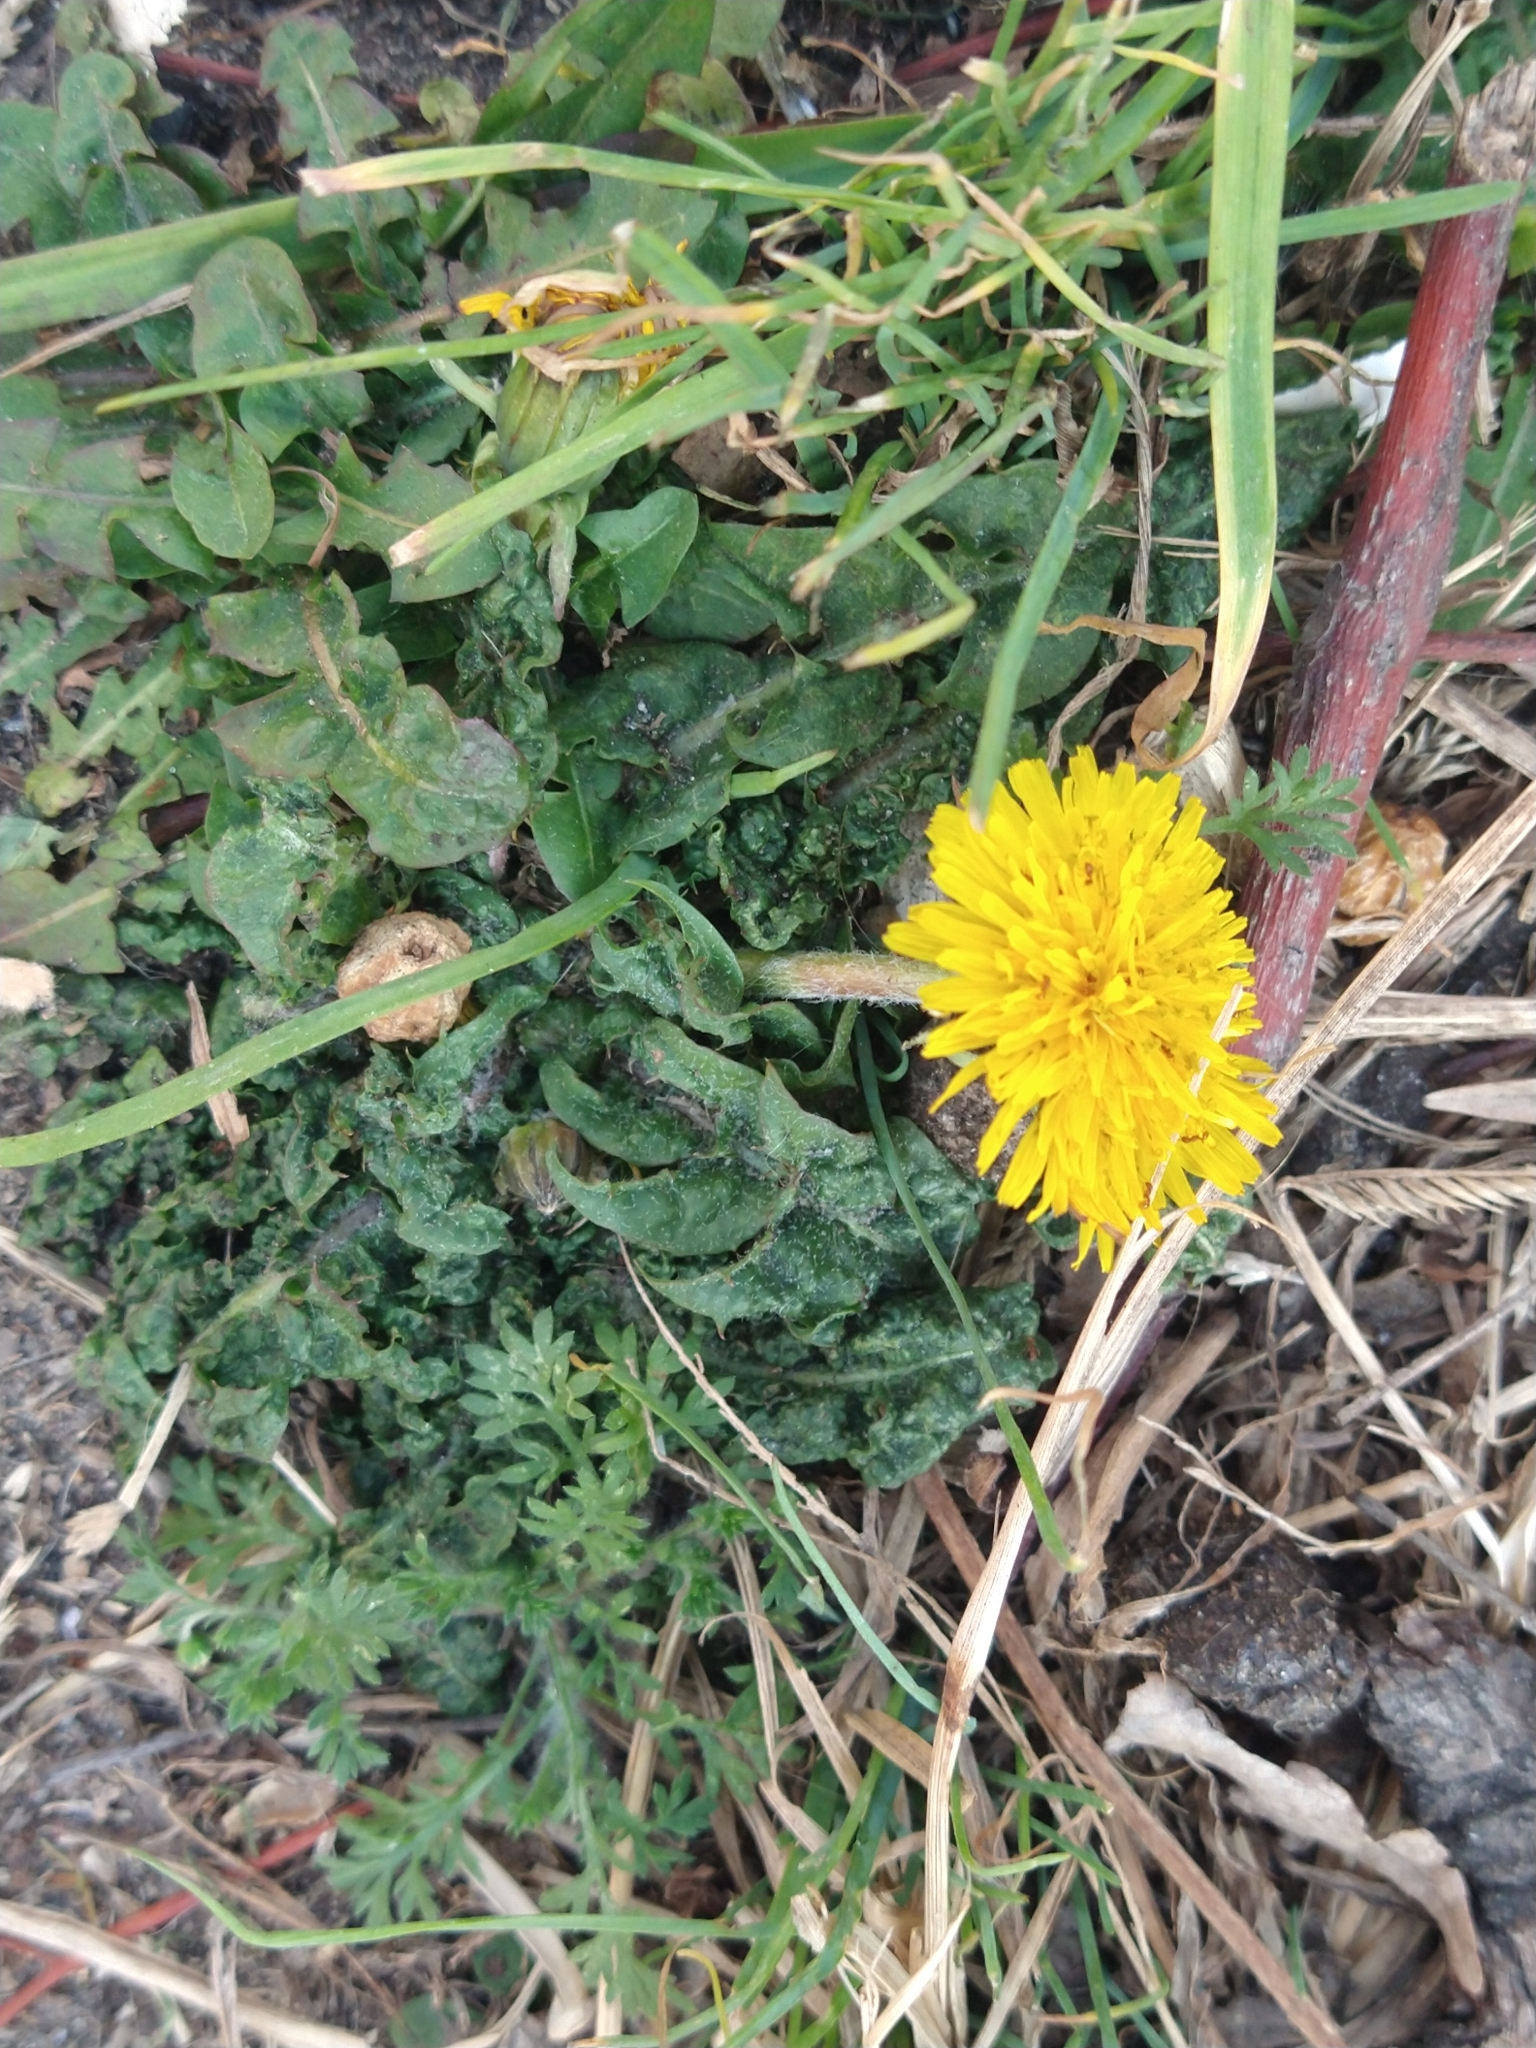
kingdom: Plantae
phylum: Tracheophyta
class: Magnoliopsida
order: Asterales
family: Asteraceae
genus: Taraxacum
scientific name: Taraxacum officinale
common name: Common dandelion
